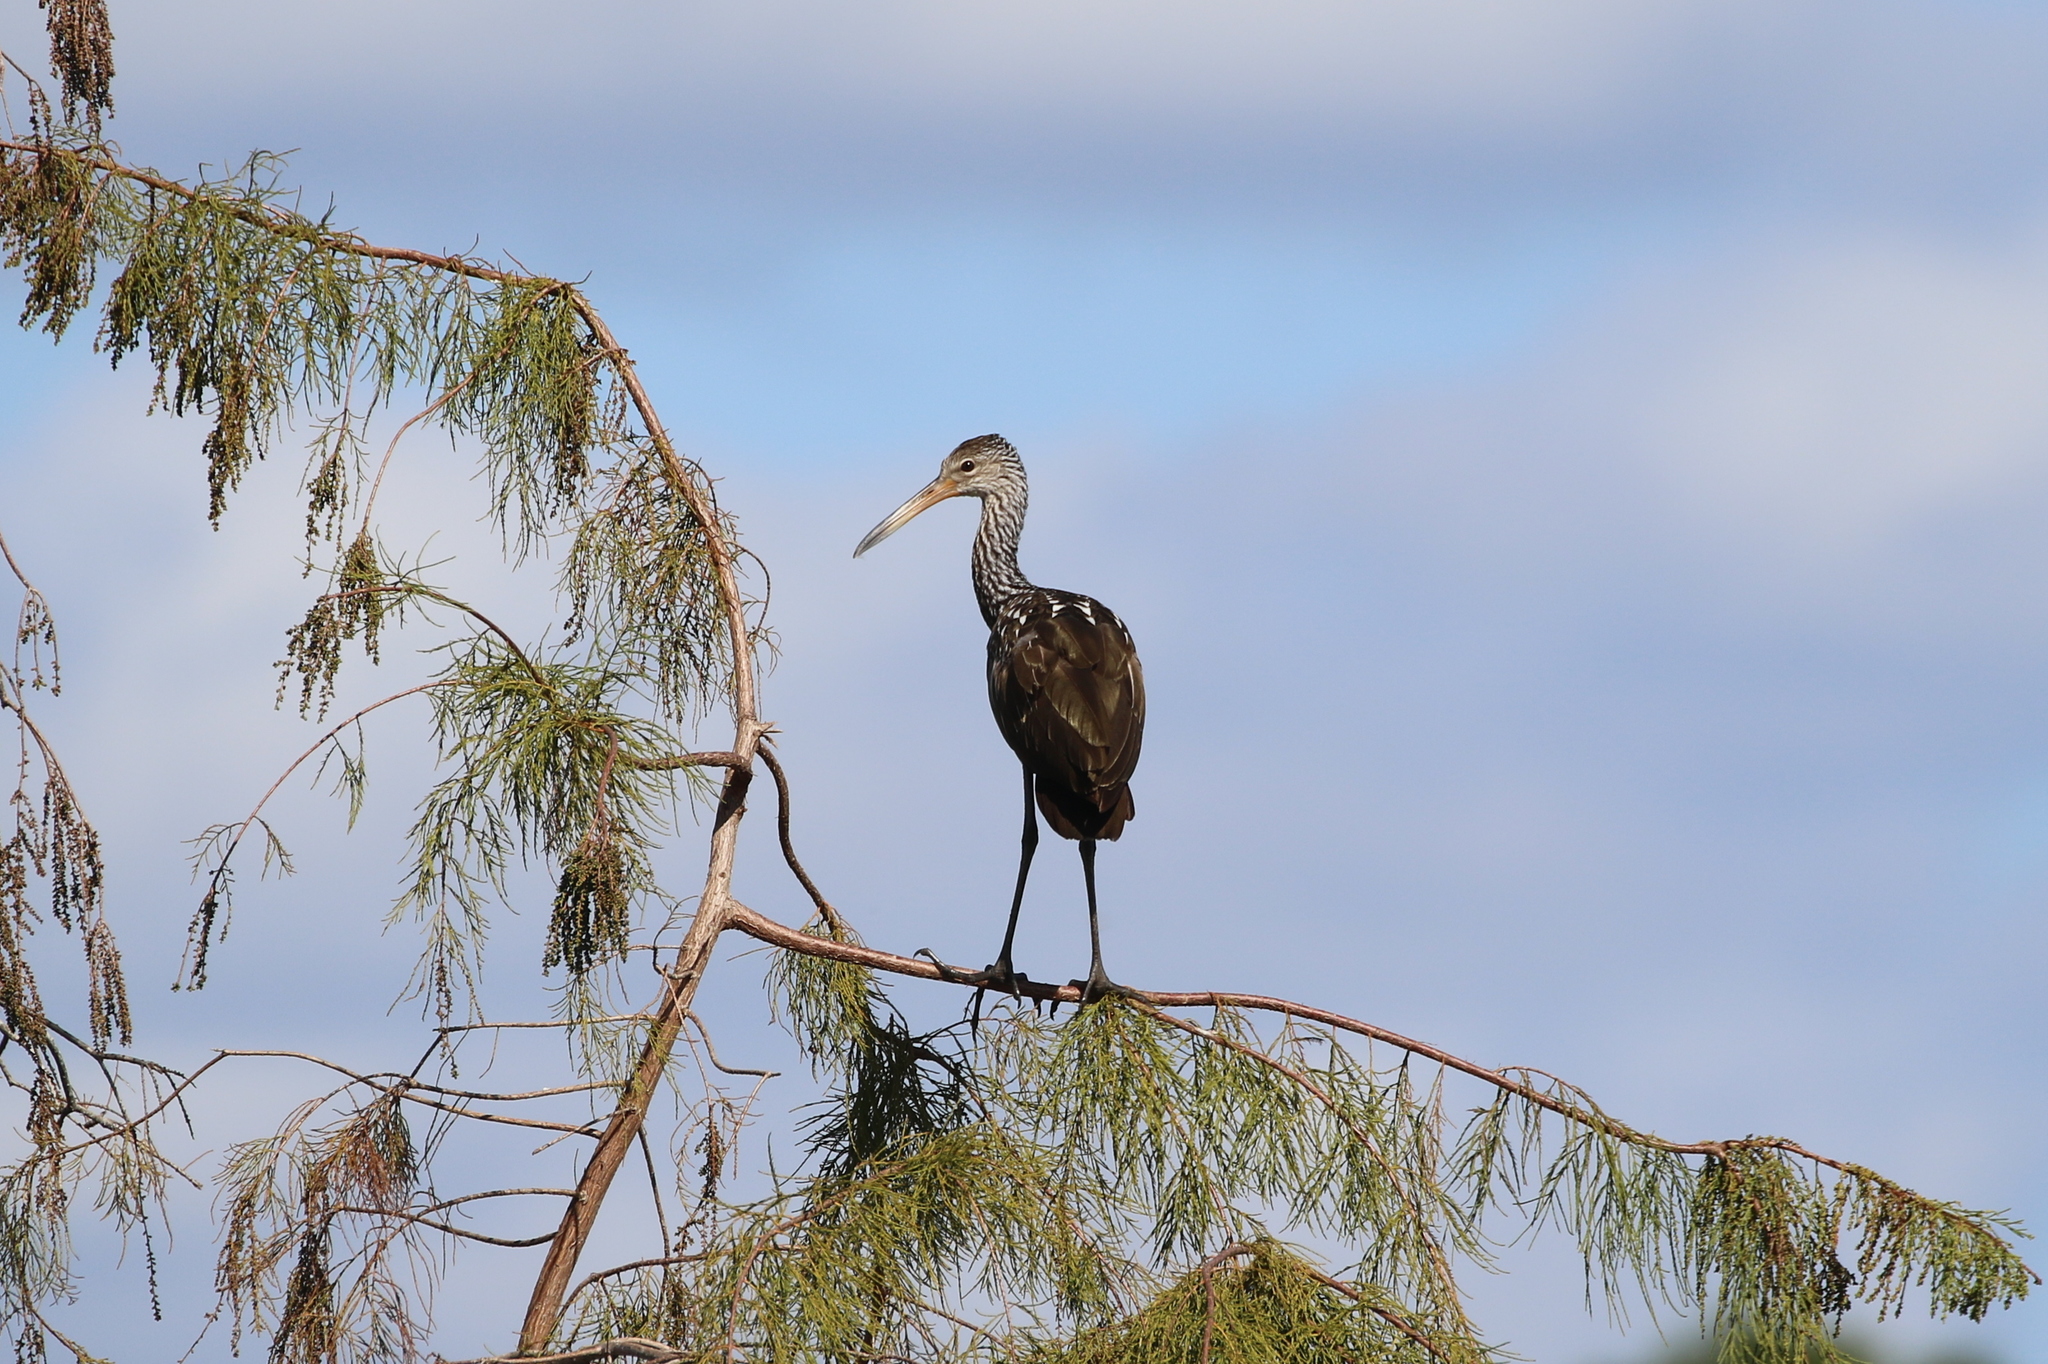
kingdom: Animalia
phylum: Chordata
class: Aves
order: Gruiformes
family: Aramidae
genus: Aramus
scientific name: Aramus guarauna
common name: Limpkin
